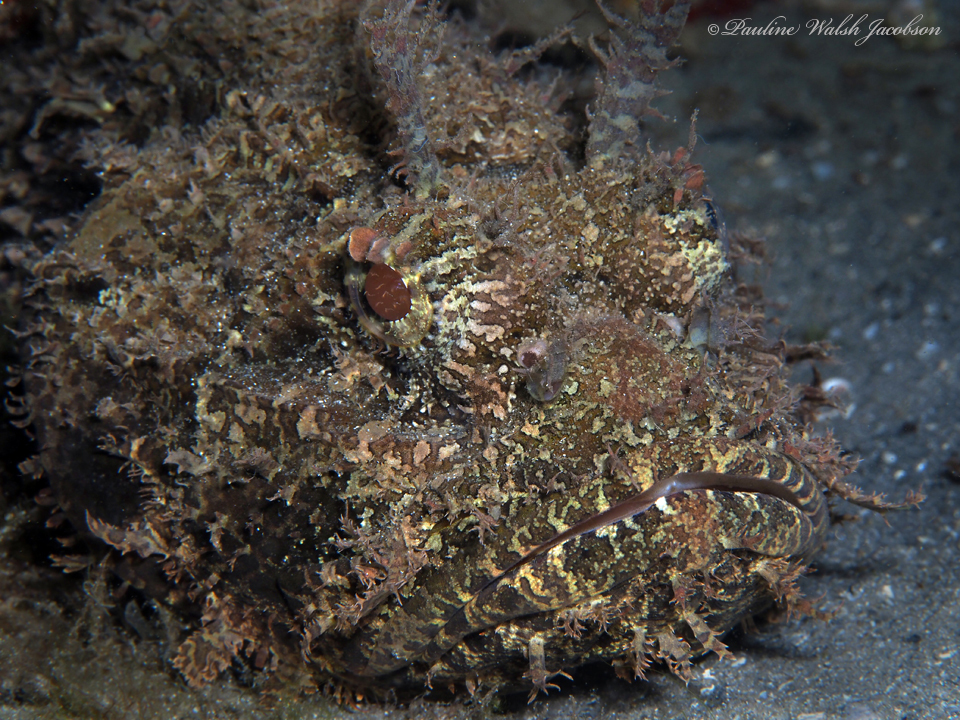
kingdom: Animalia
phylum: Chordata
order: Scorpaeniformes
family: Scorpaenidae
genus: Scorpaena
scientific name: Scorpaena plumieri
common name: Spotted scorpionfish
